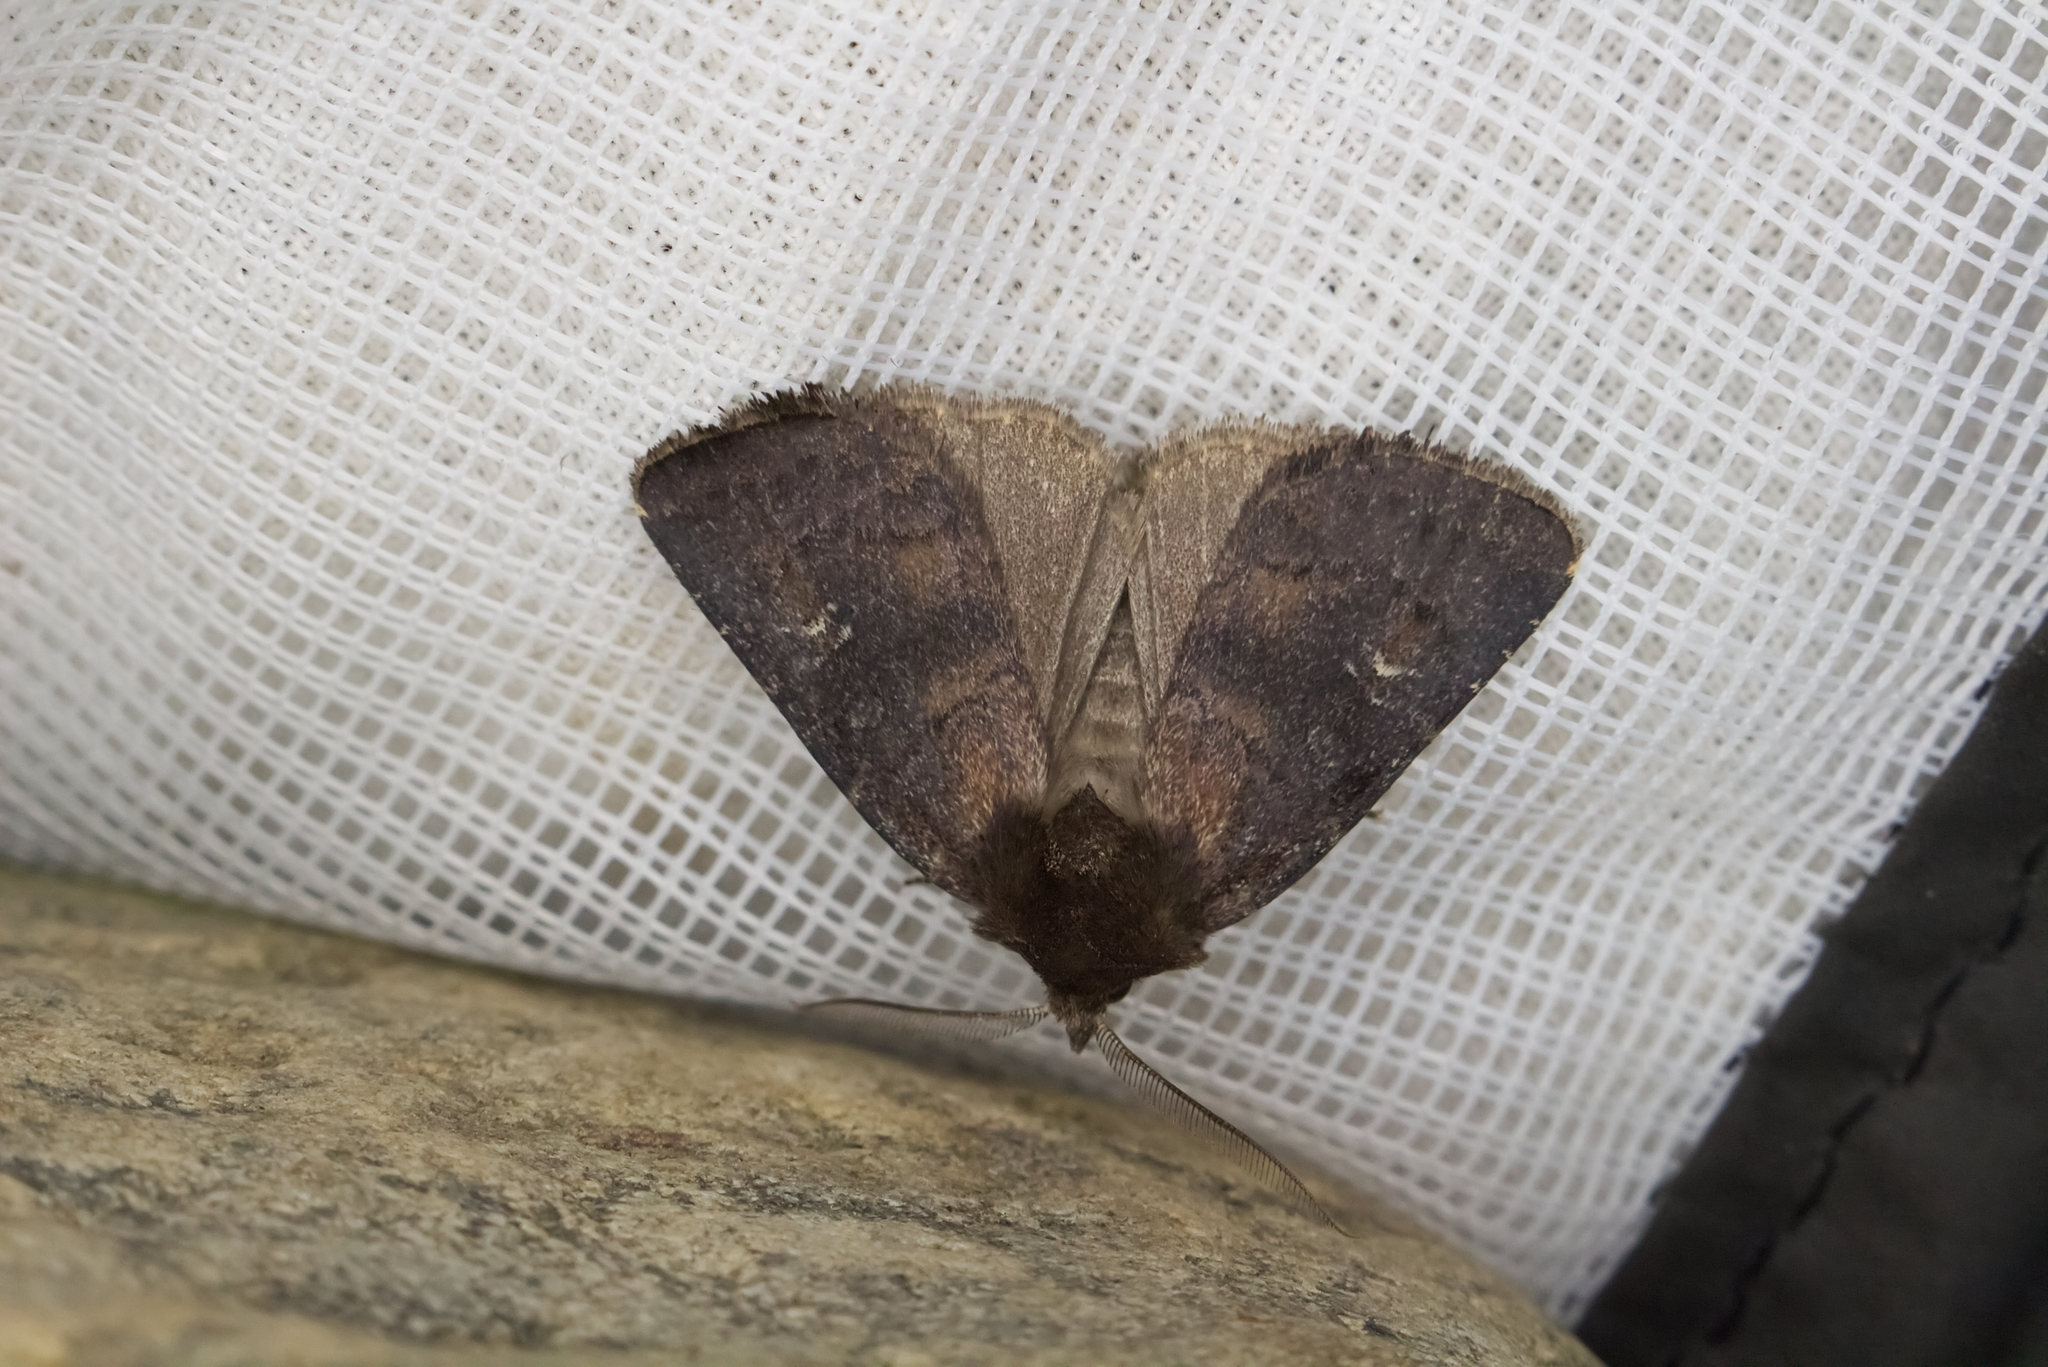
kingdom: Animalia
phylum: Arthropoda
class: Insecta
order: Lepidoptera
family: Noctuidae
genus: Charanyca
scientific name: Charanyca ferruginea
